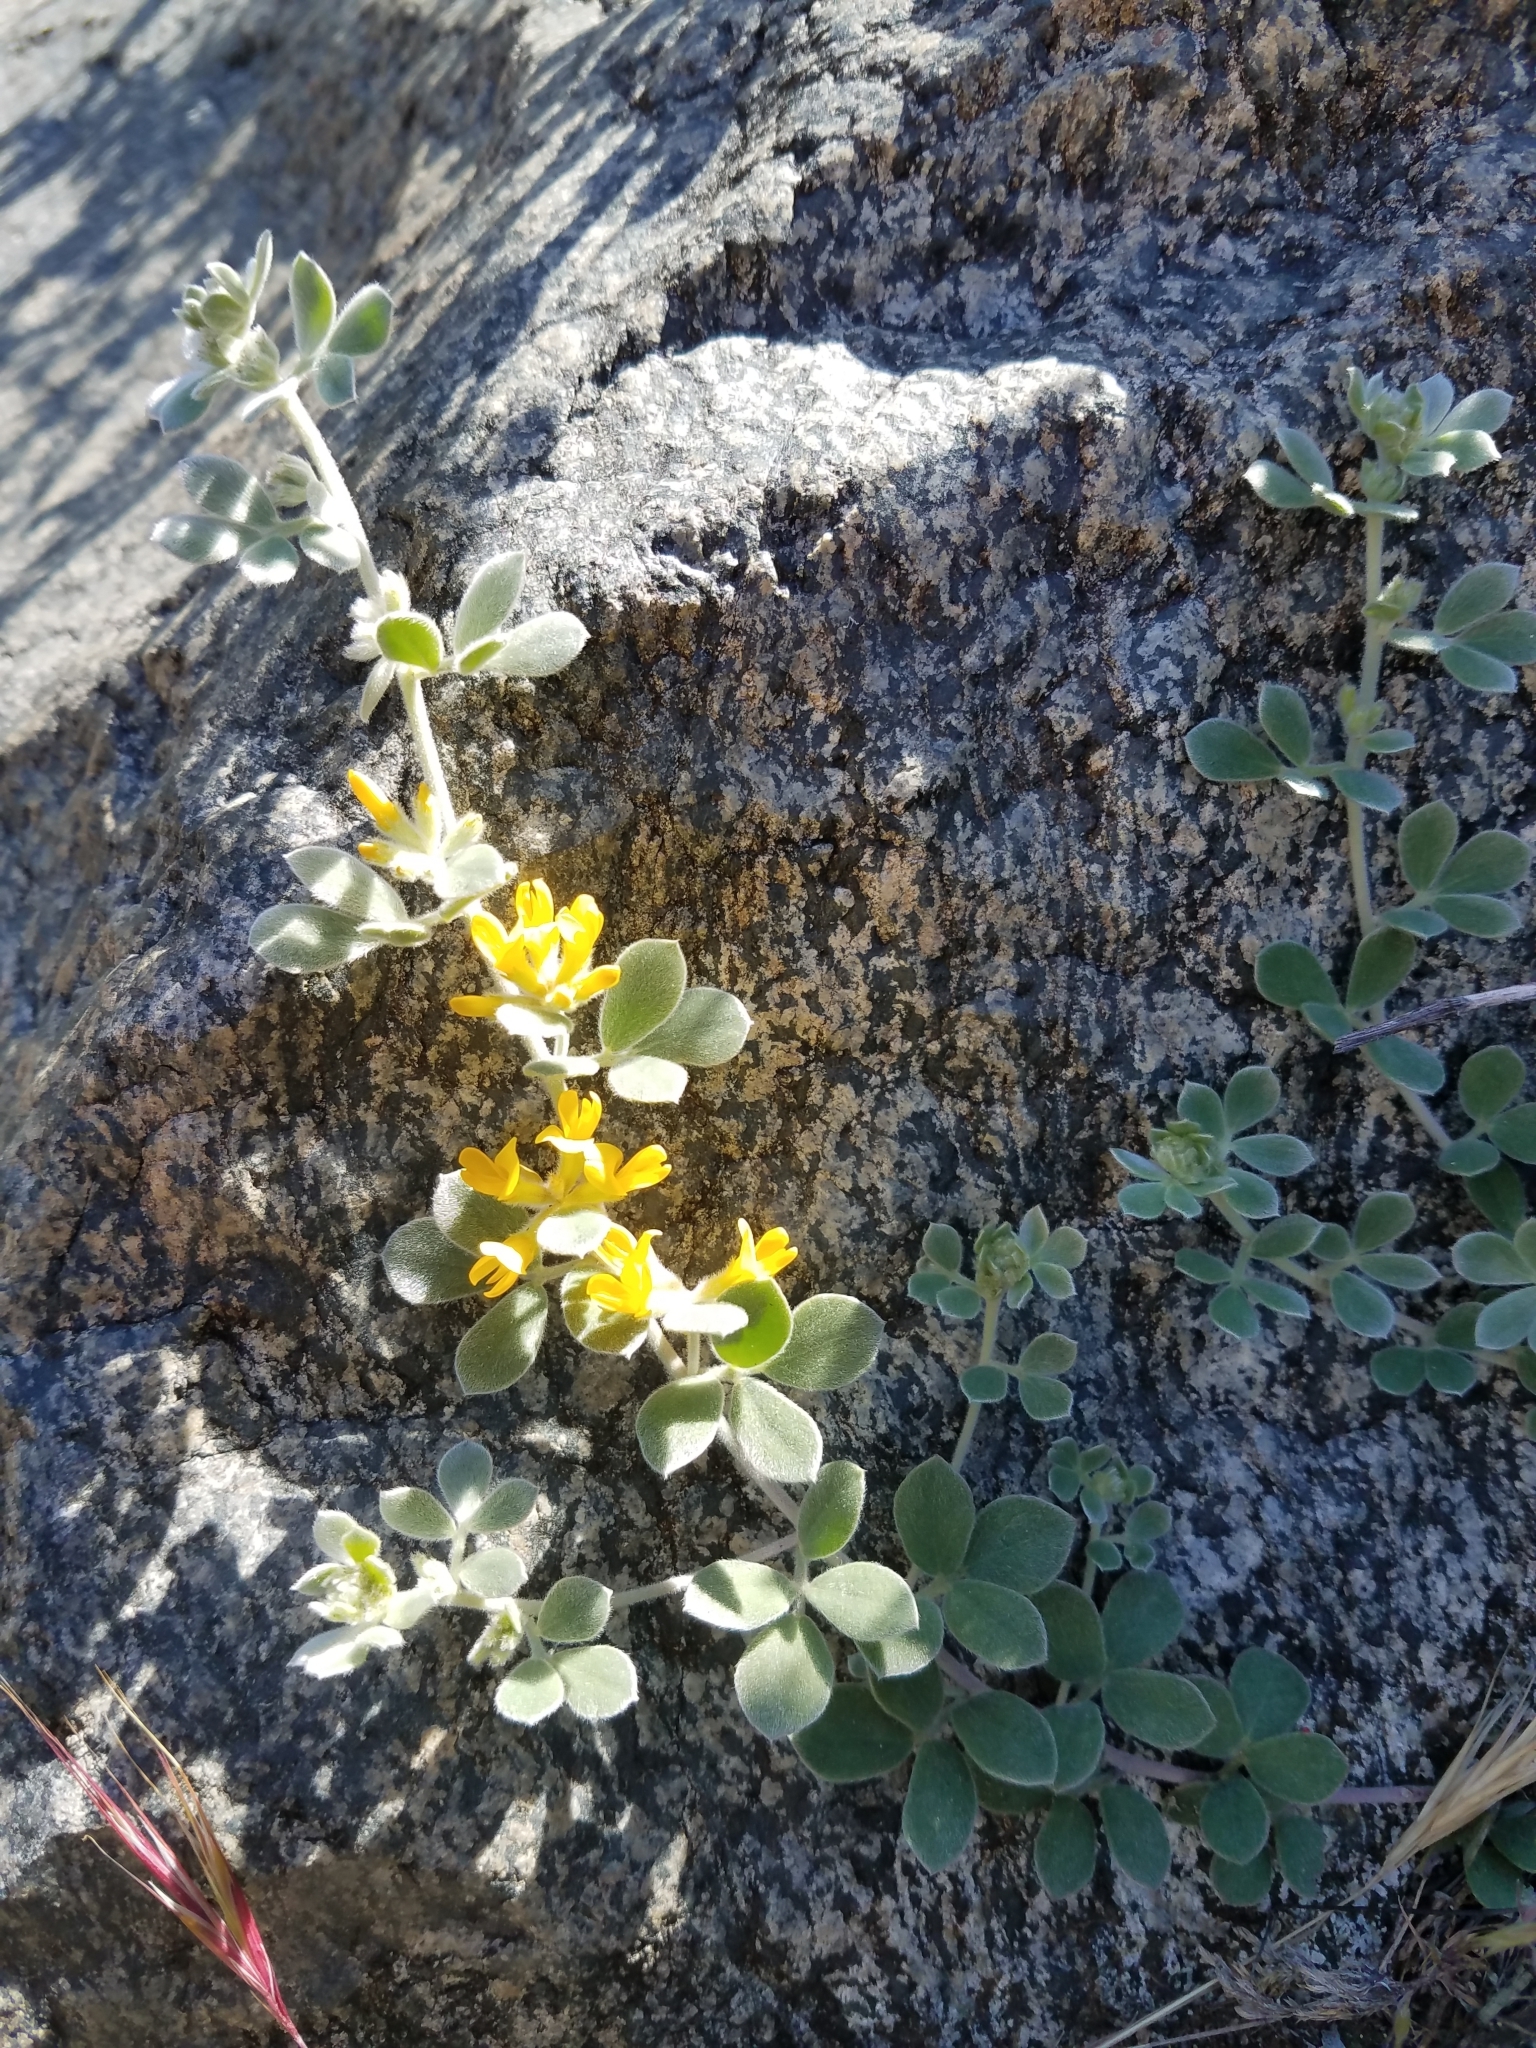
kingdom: Plantae
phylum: Tracheophyta
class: Magnoliopsida
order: Fabales
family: Fabaceae
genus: Acmispon
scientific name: Acmispon argophyllus
